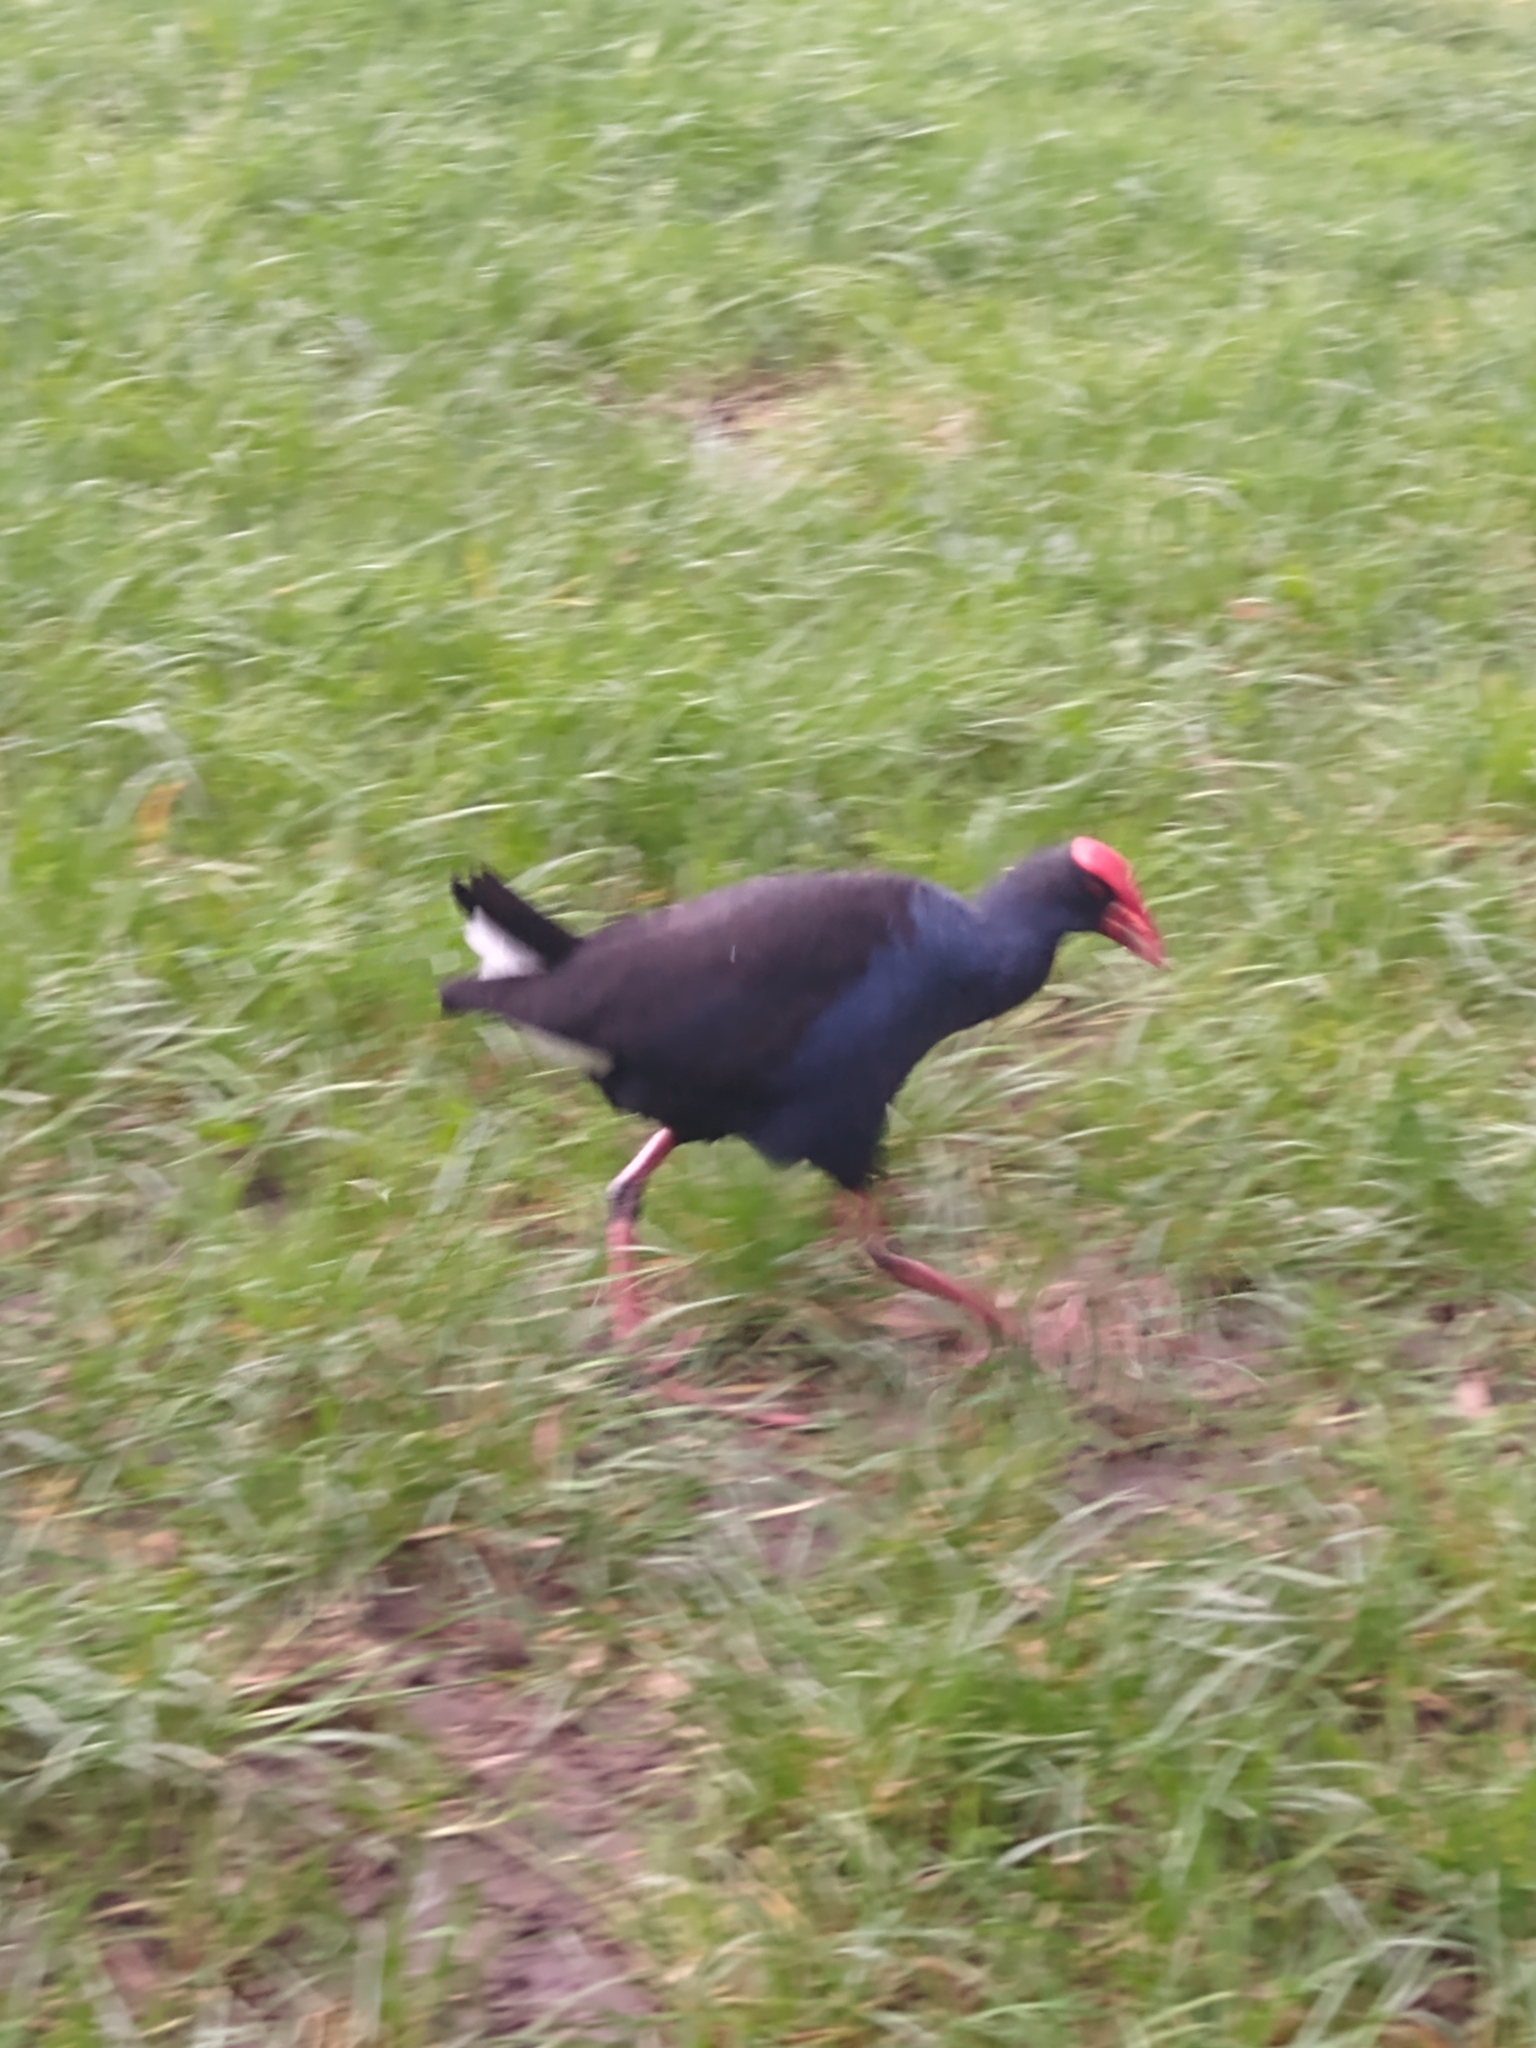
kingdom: Animalia
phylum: Chordata
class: Aves
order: Gruiformes
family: Rallidae
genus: Porphyrio
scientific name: Porphyrio melanotus
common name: Australasian swamphen
